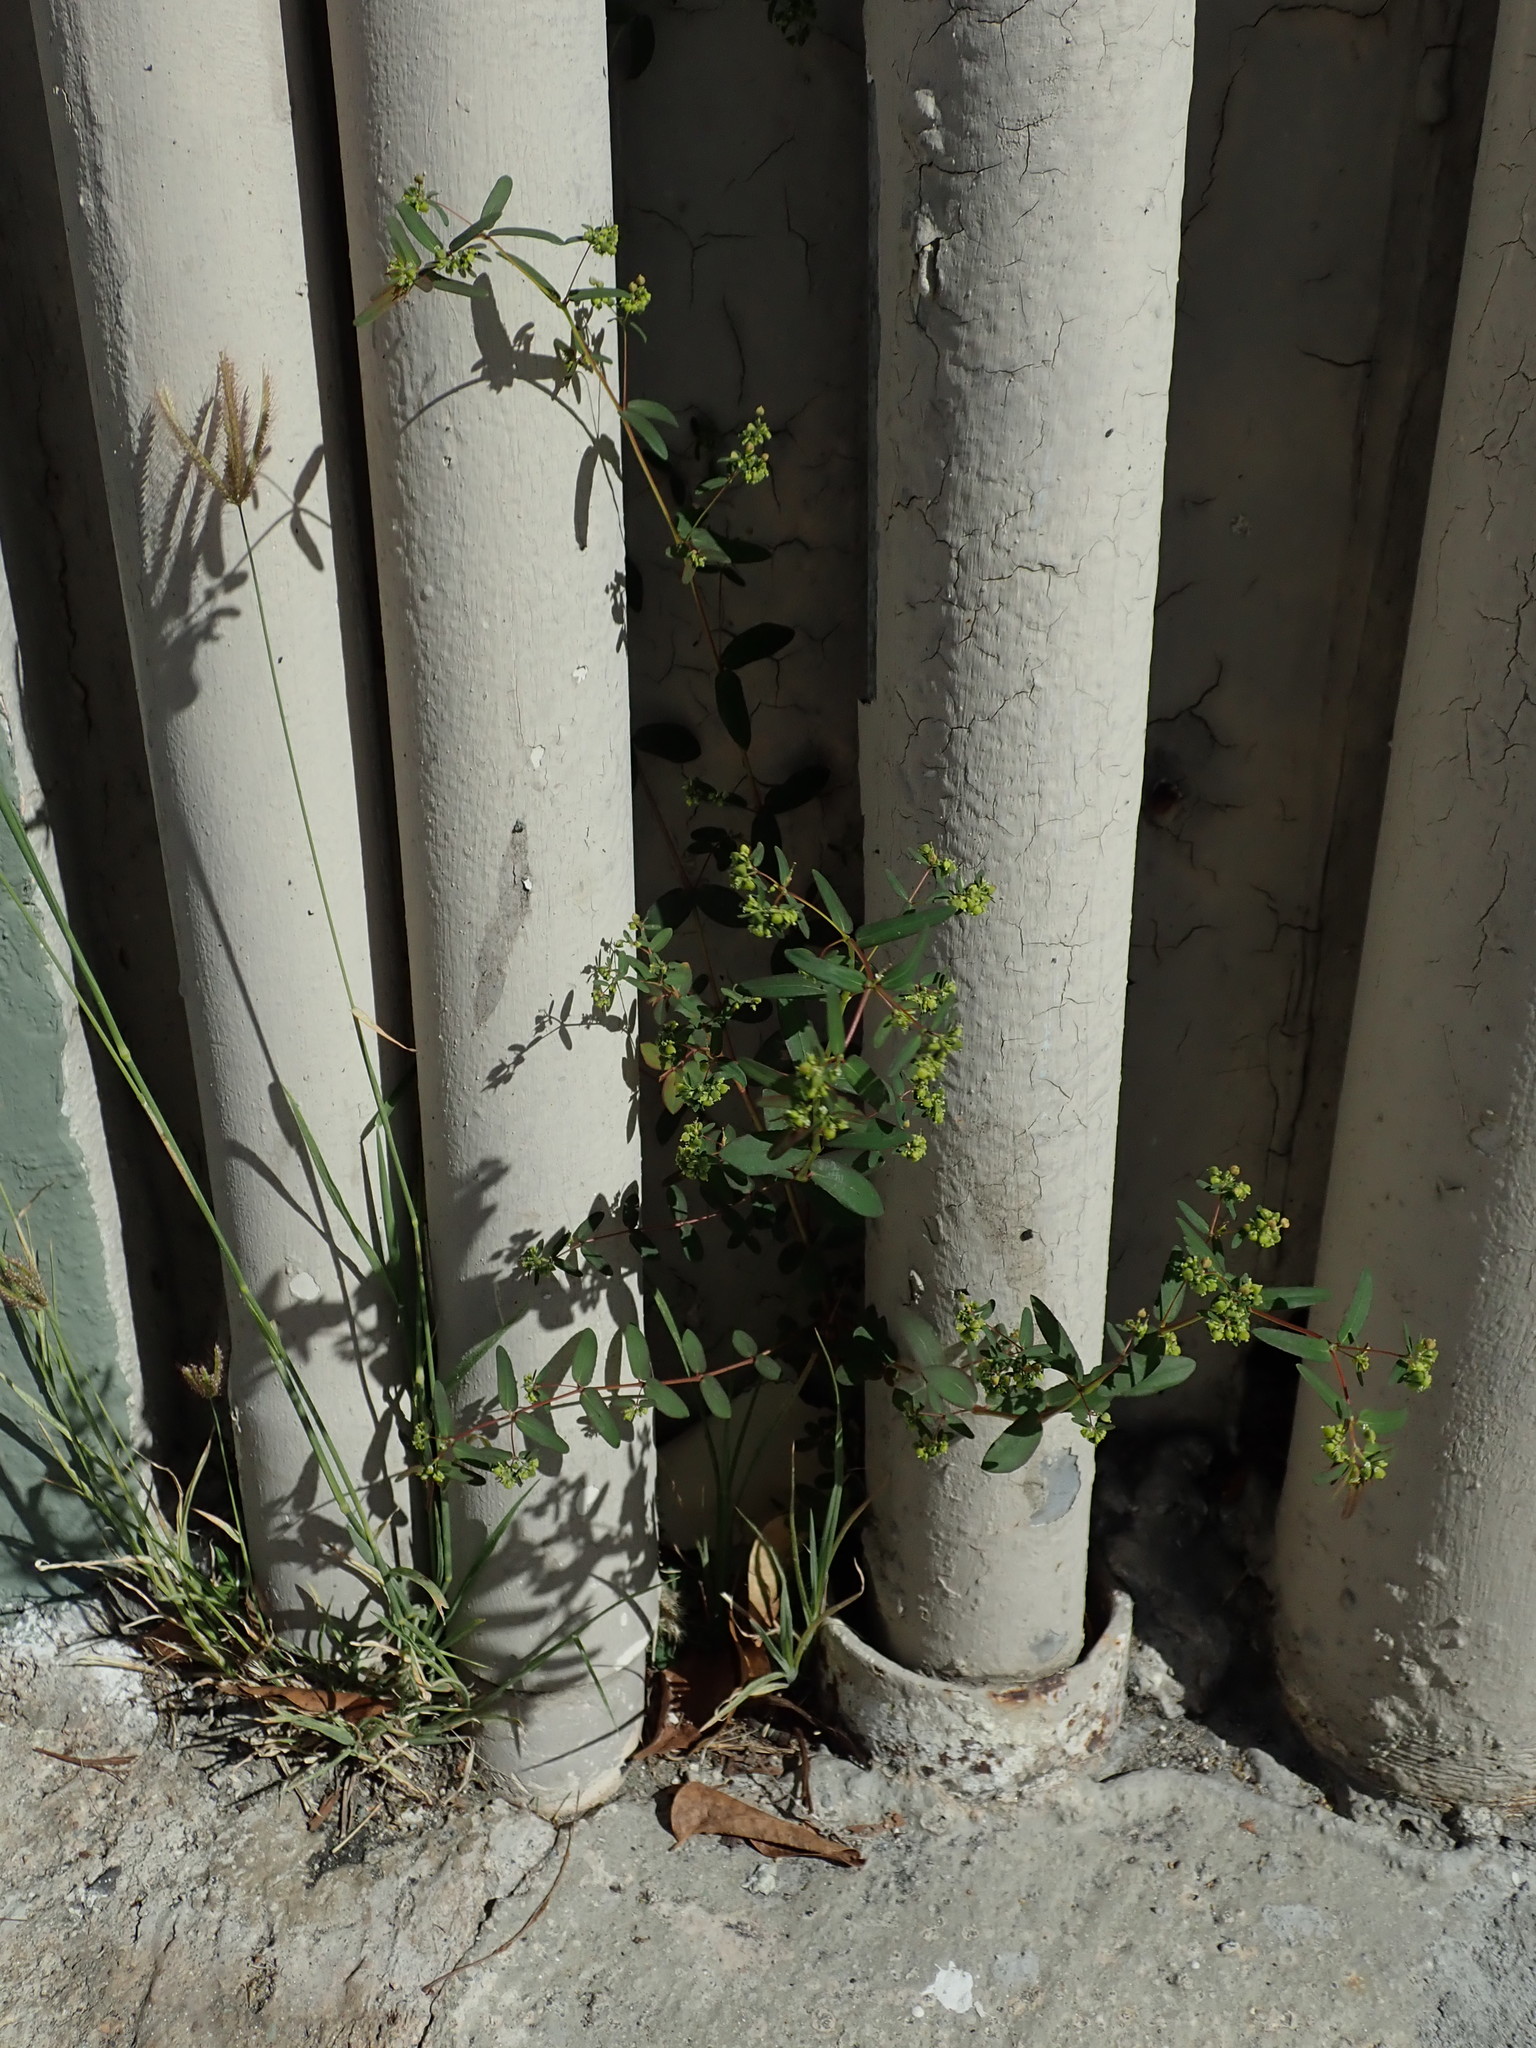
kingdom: Plantae
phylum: Tracheophyta
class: Magnoliopsida
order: Malpighiales
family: Euphorbiaceae
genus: Euphorbia
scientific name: Euphorbia hyssopifolia
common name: Hyssopleaf sandmat
